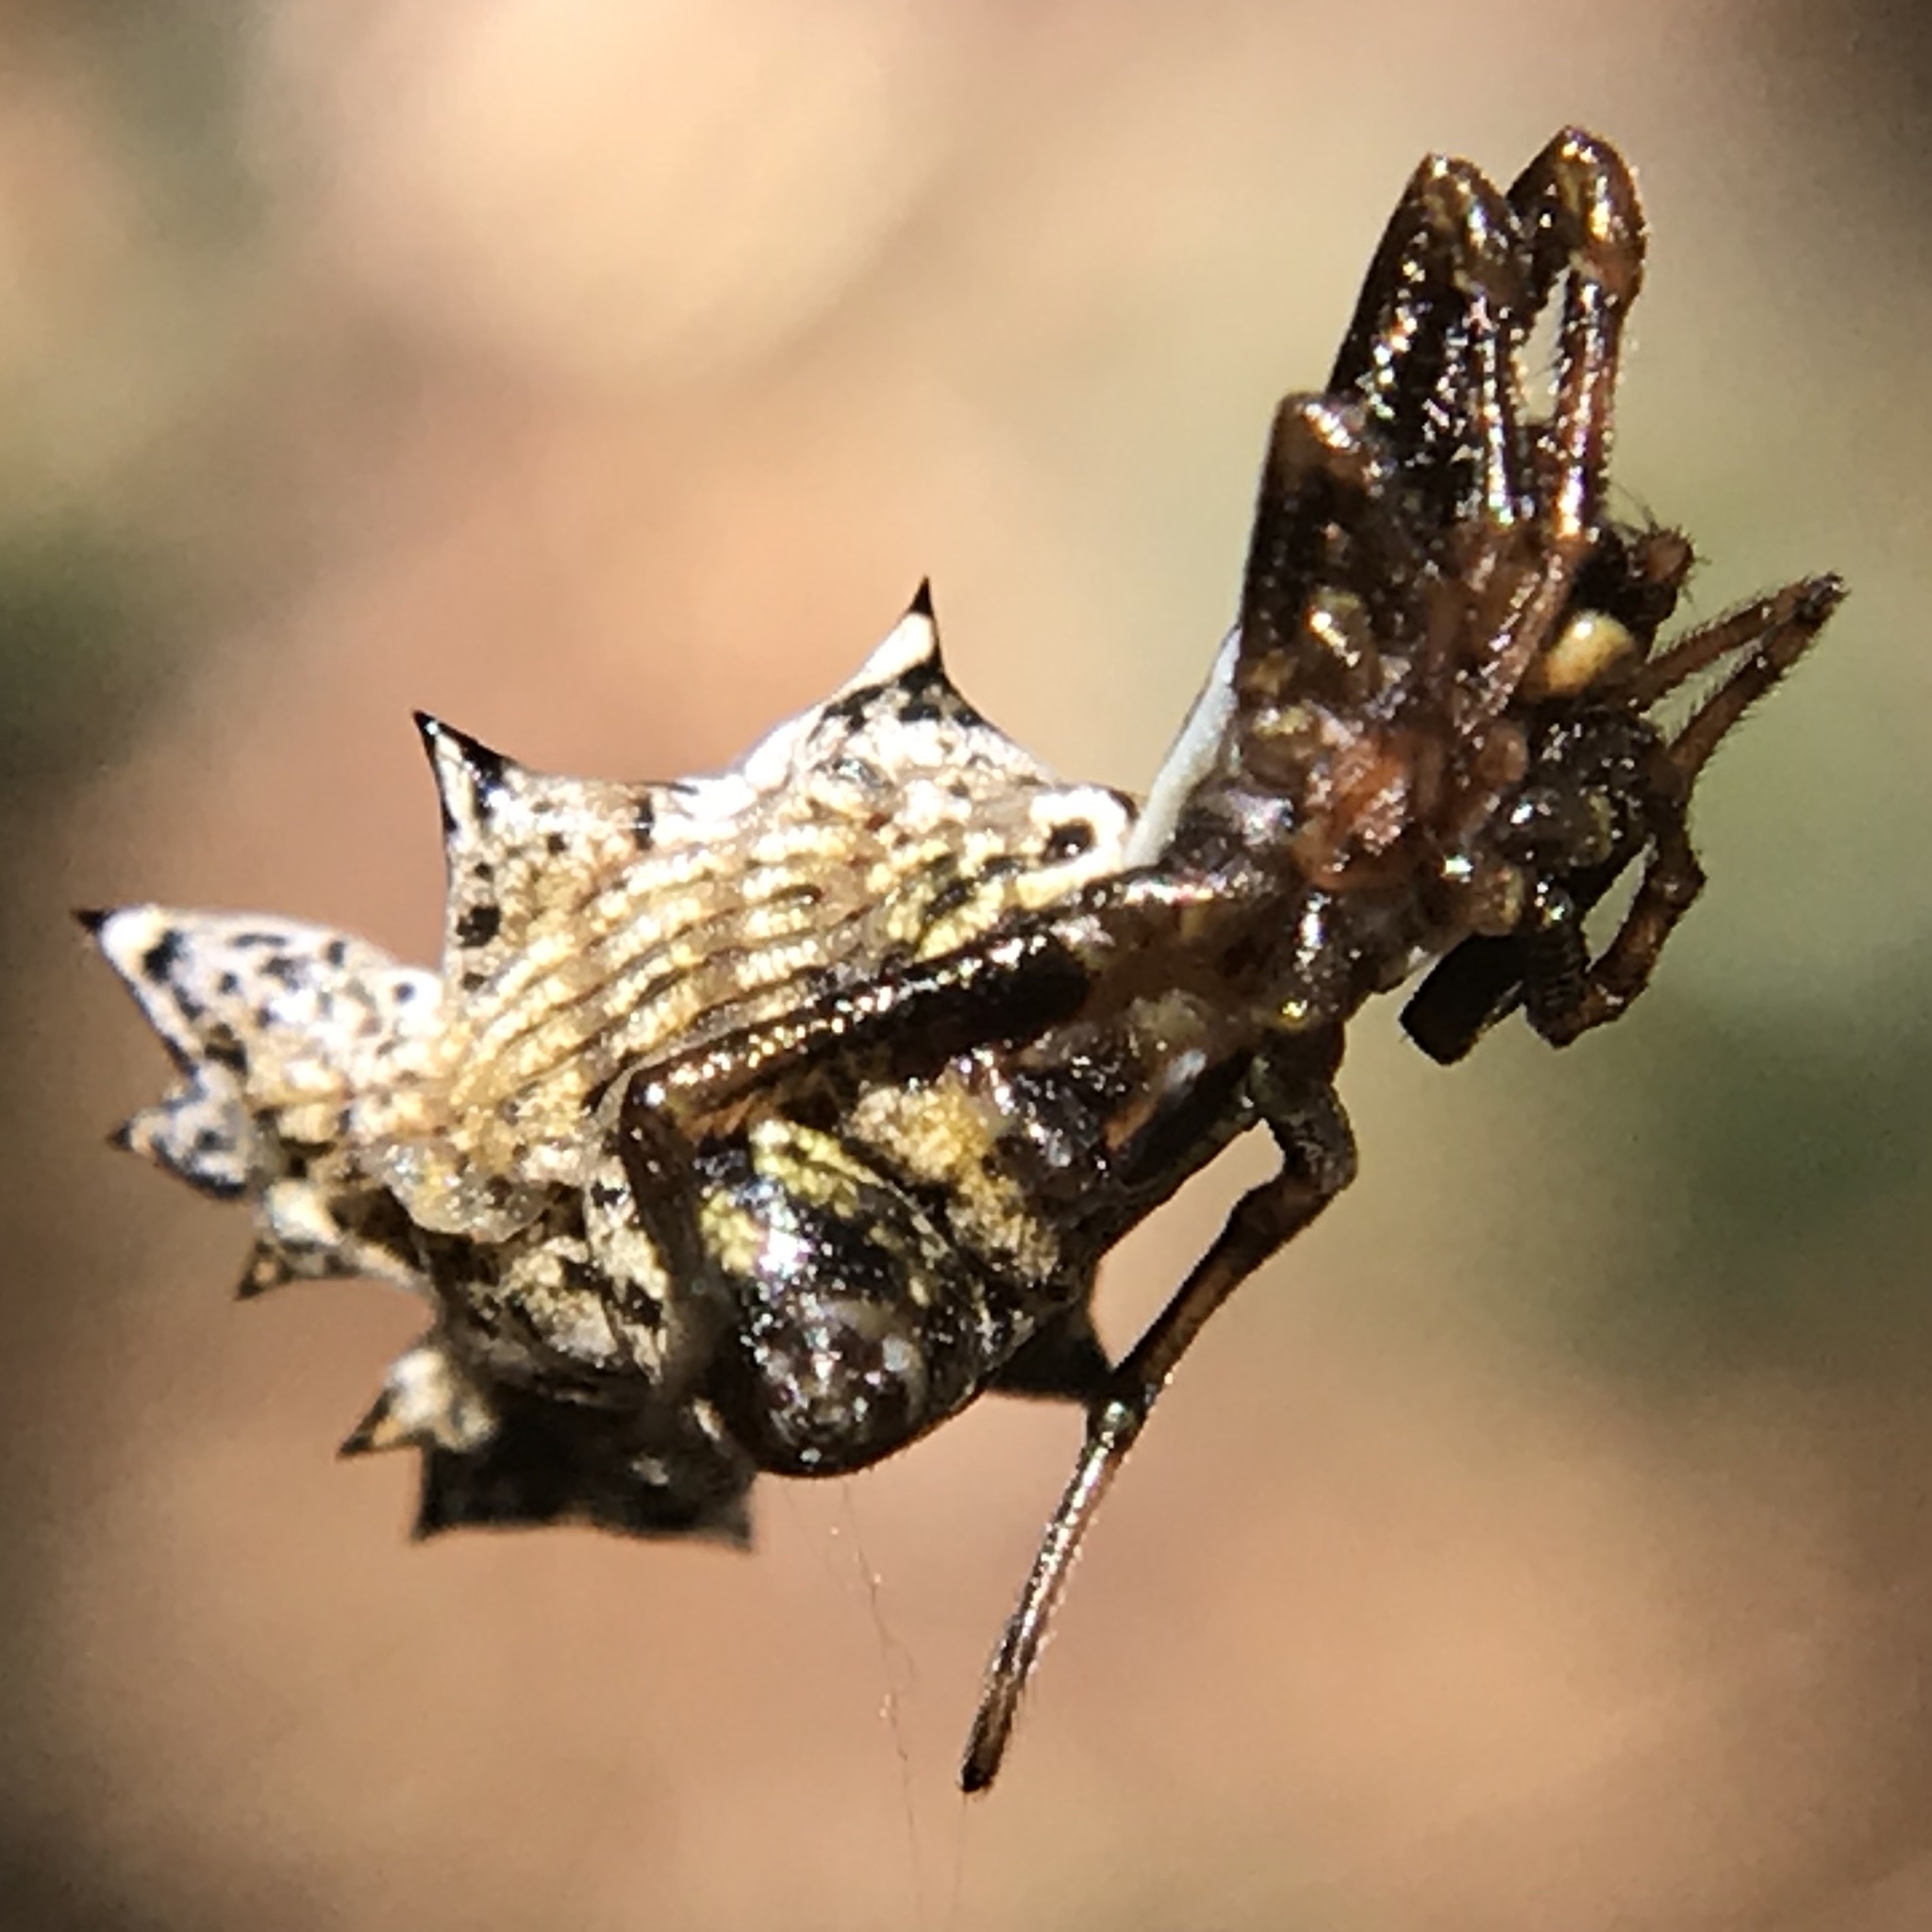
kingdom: Animalia
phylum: Arthropoda
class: Arachnida
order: Araneae
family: Araneidae
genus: Micrathena
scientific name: Micrathena gracilis
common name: Orb weavers
